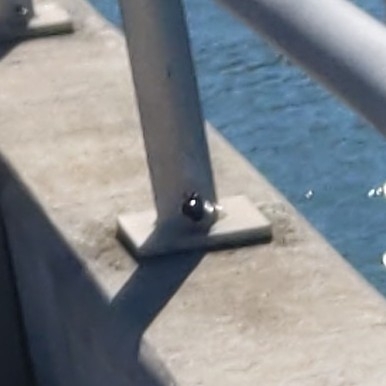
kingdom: Animalia
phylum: Arthropoda
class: Insecta
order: Hymenoptera
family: Apidae
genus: Xylocopa
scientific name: Xylocopa mordax
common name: Antillean carpenter bee
